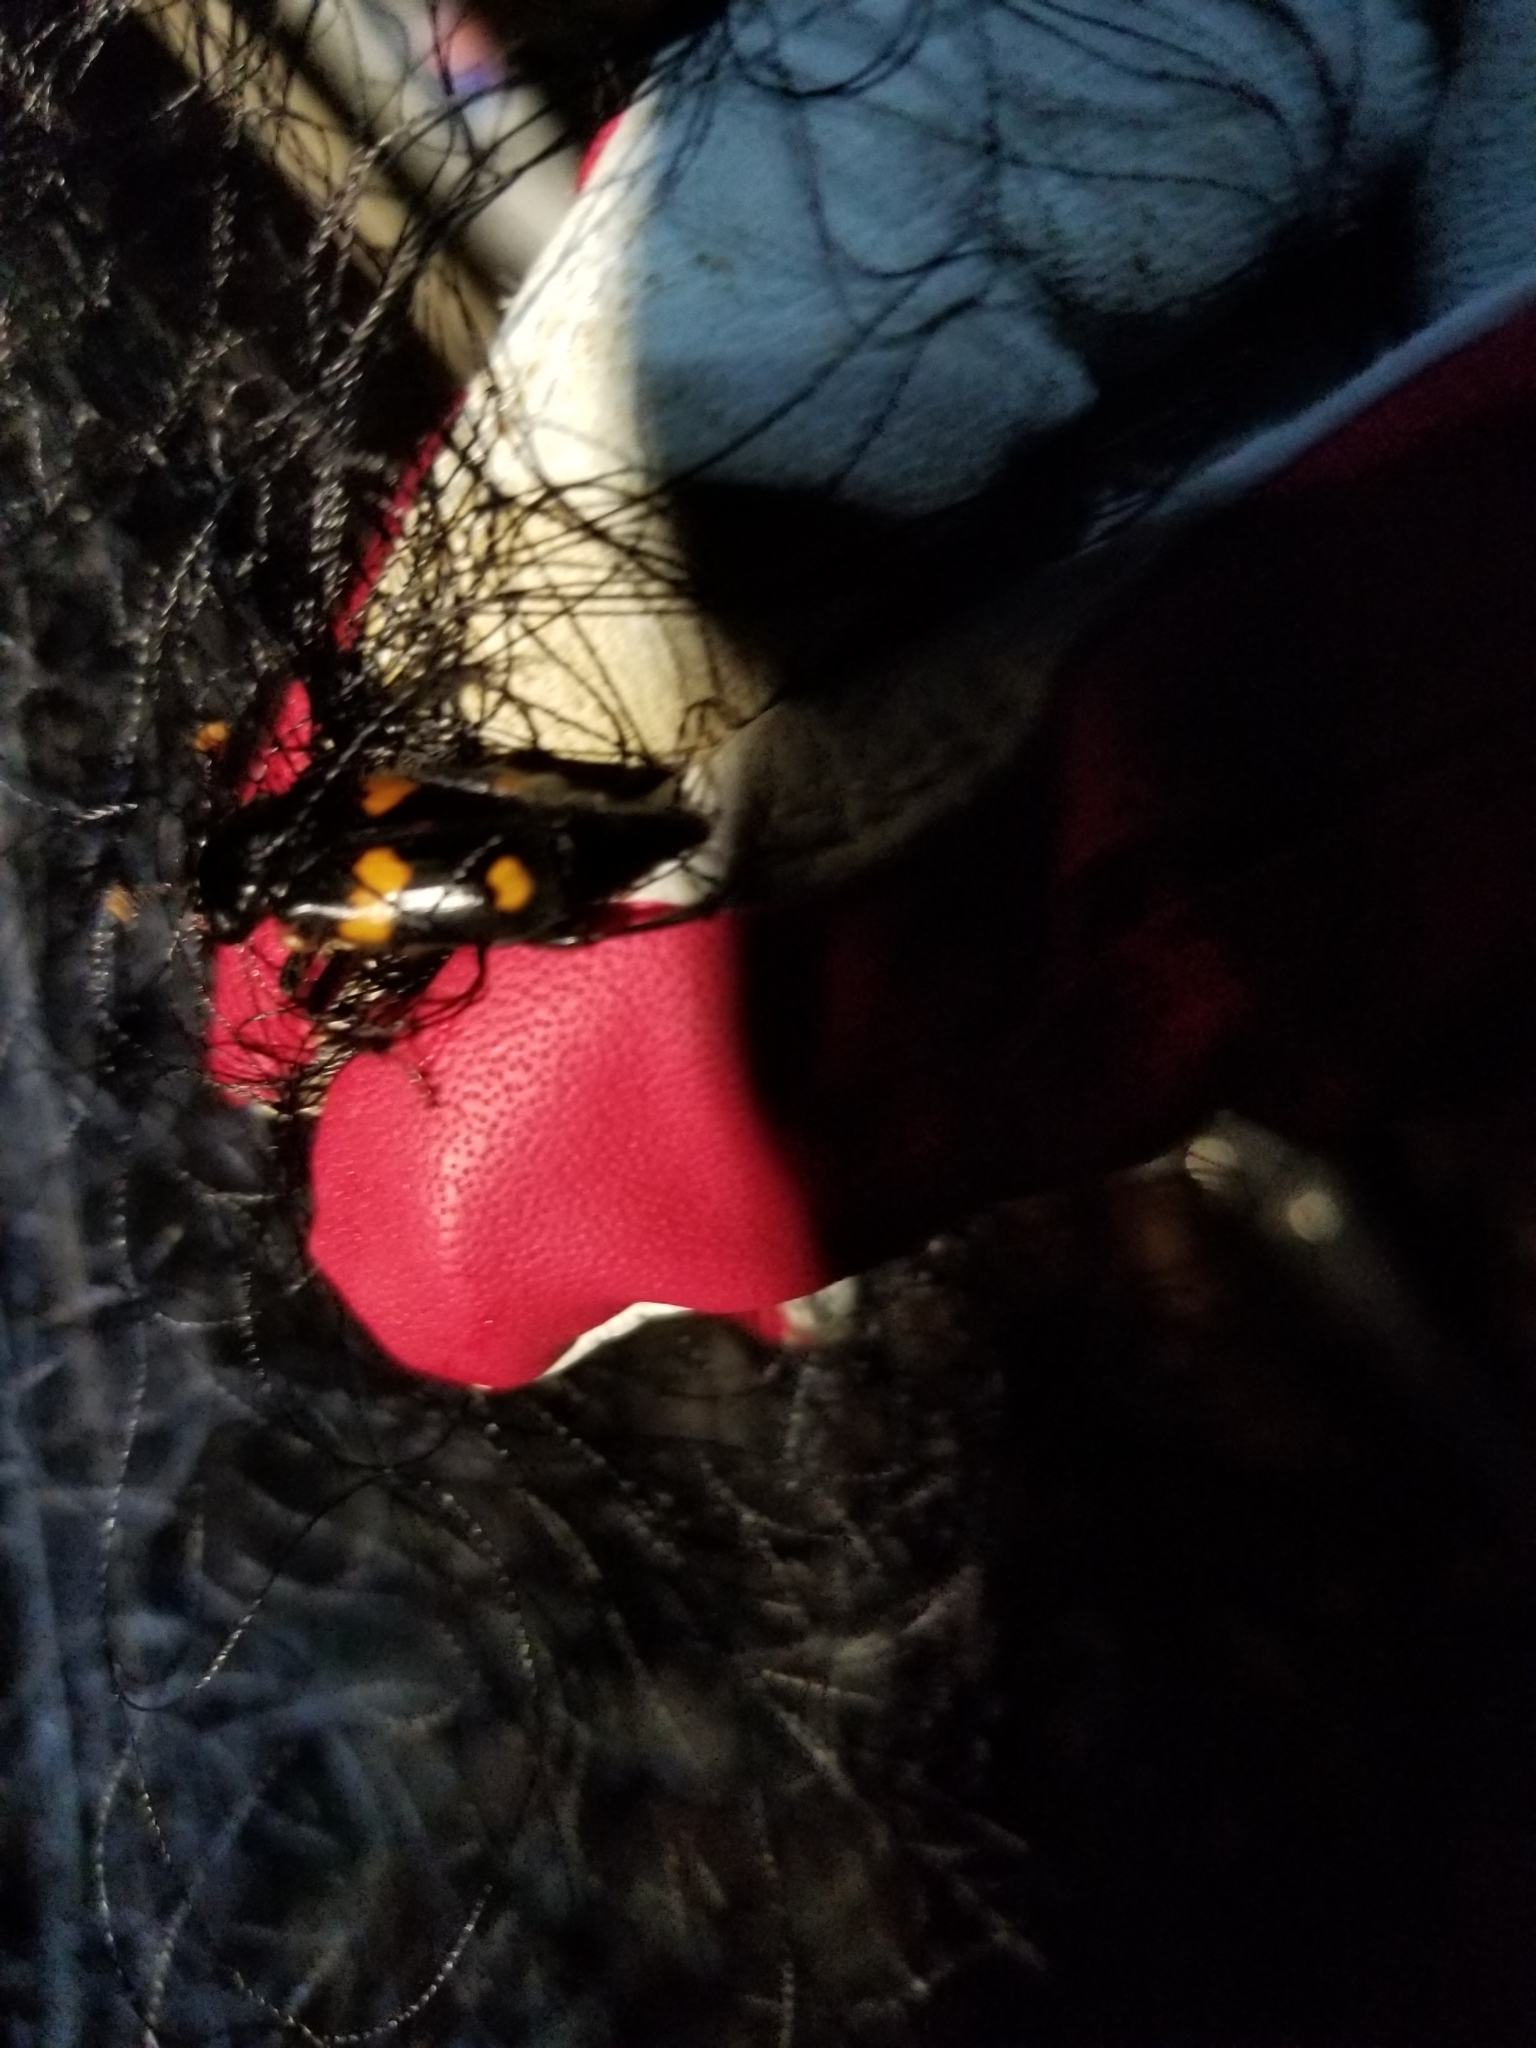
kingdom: Animalia
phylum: Arthropoda
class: Insecta
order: Coleoptera
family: Staphylinidae
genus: Nicrophorus
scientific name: Nicrophorus orbicollis
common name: Roundneck sexton beetle
